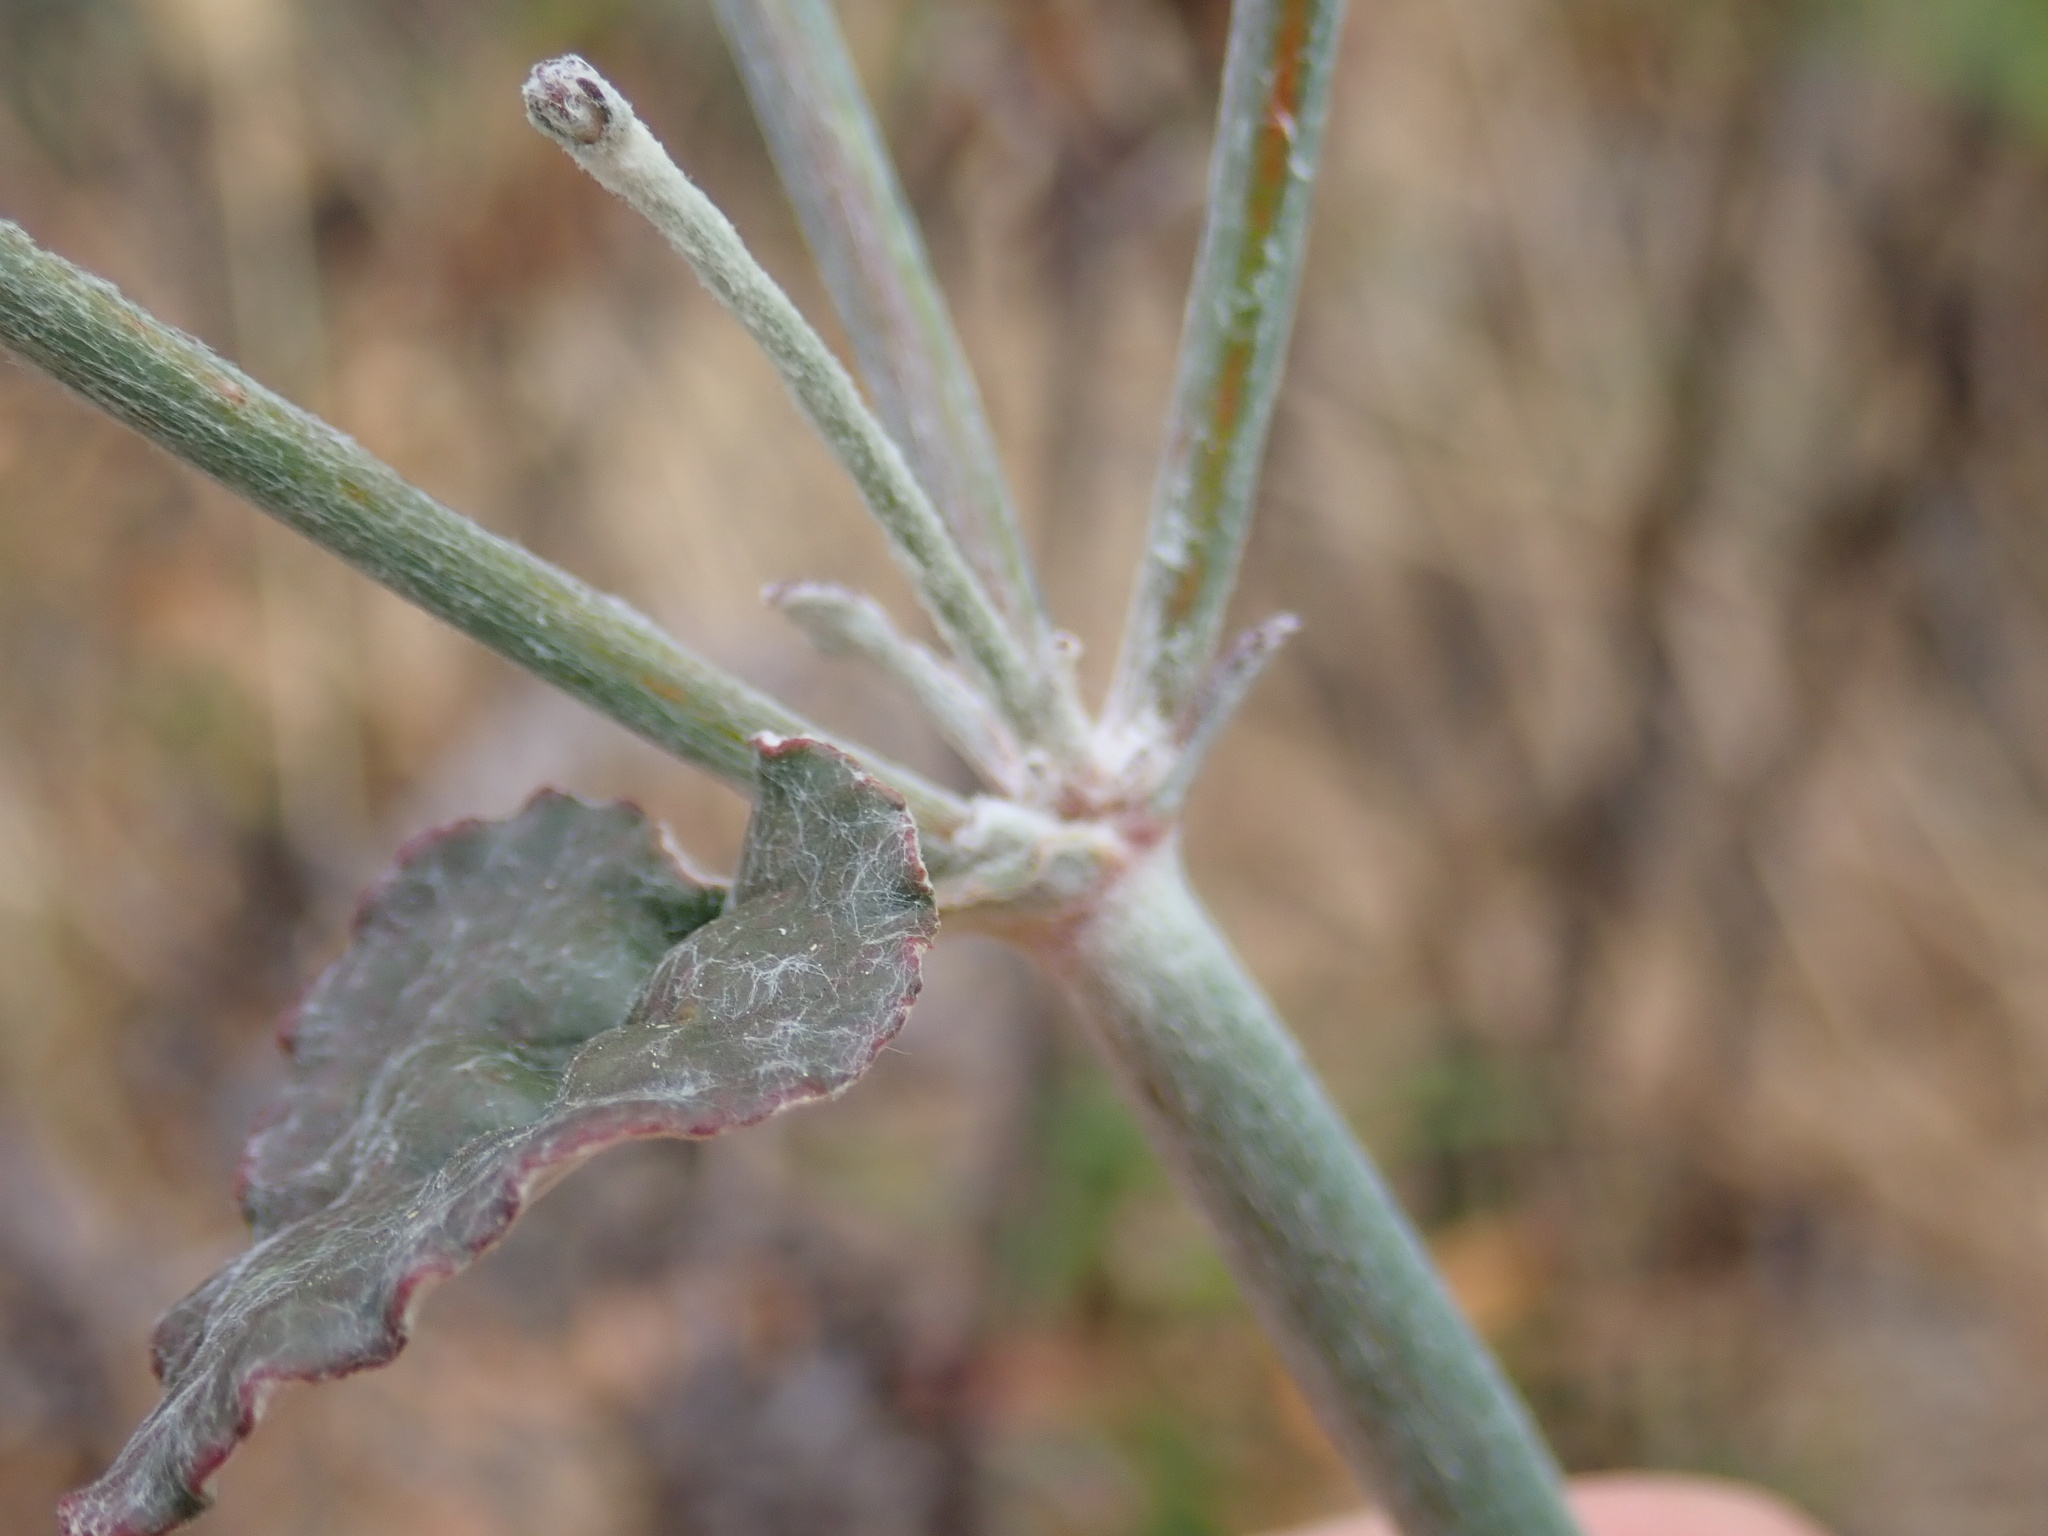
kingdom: Plantae
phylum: Tracheophyta
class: Magnoliopsida
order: Caryophyllales
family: Polygonaceae
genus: Eriogonum
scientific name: Eriogonum nudum
